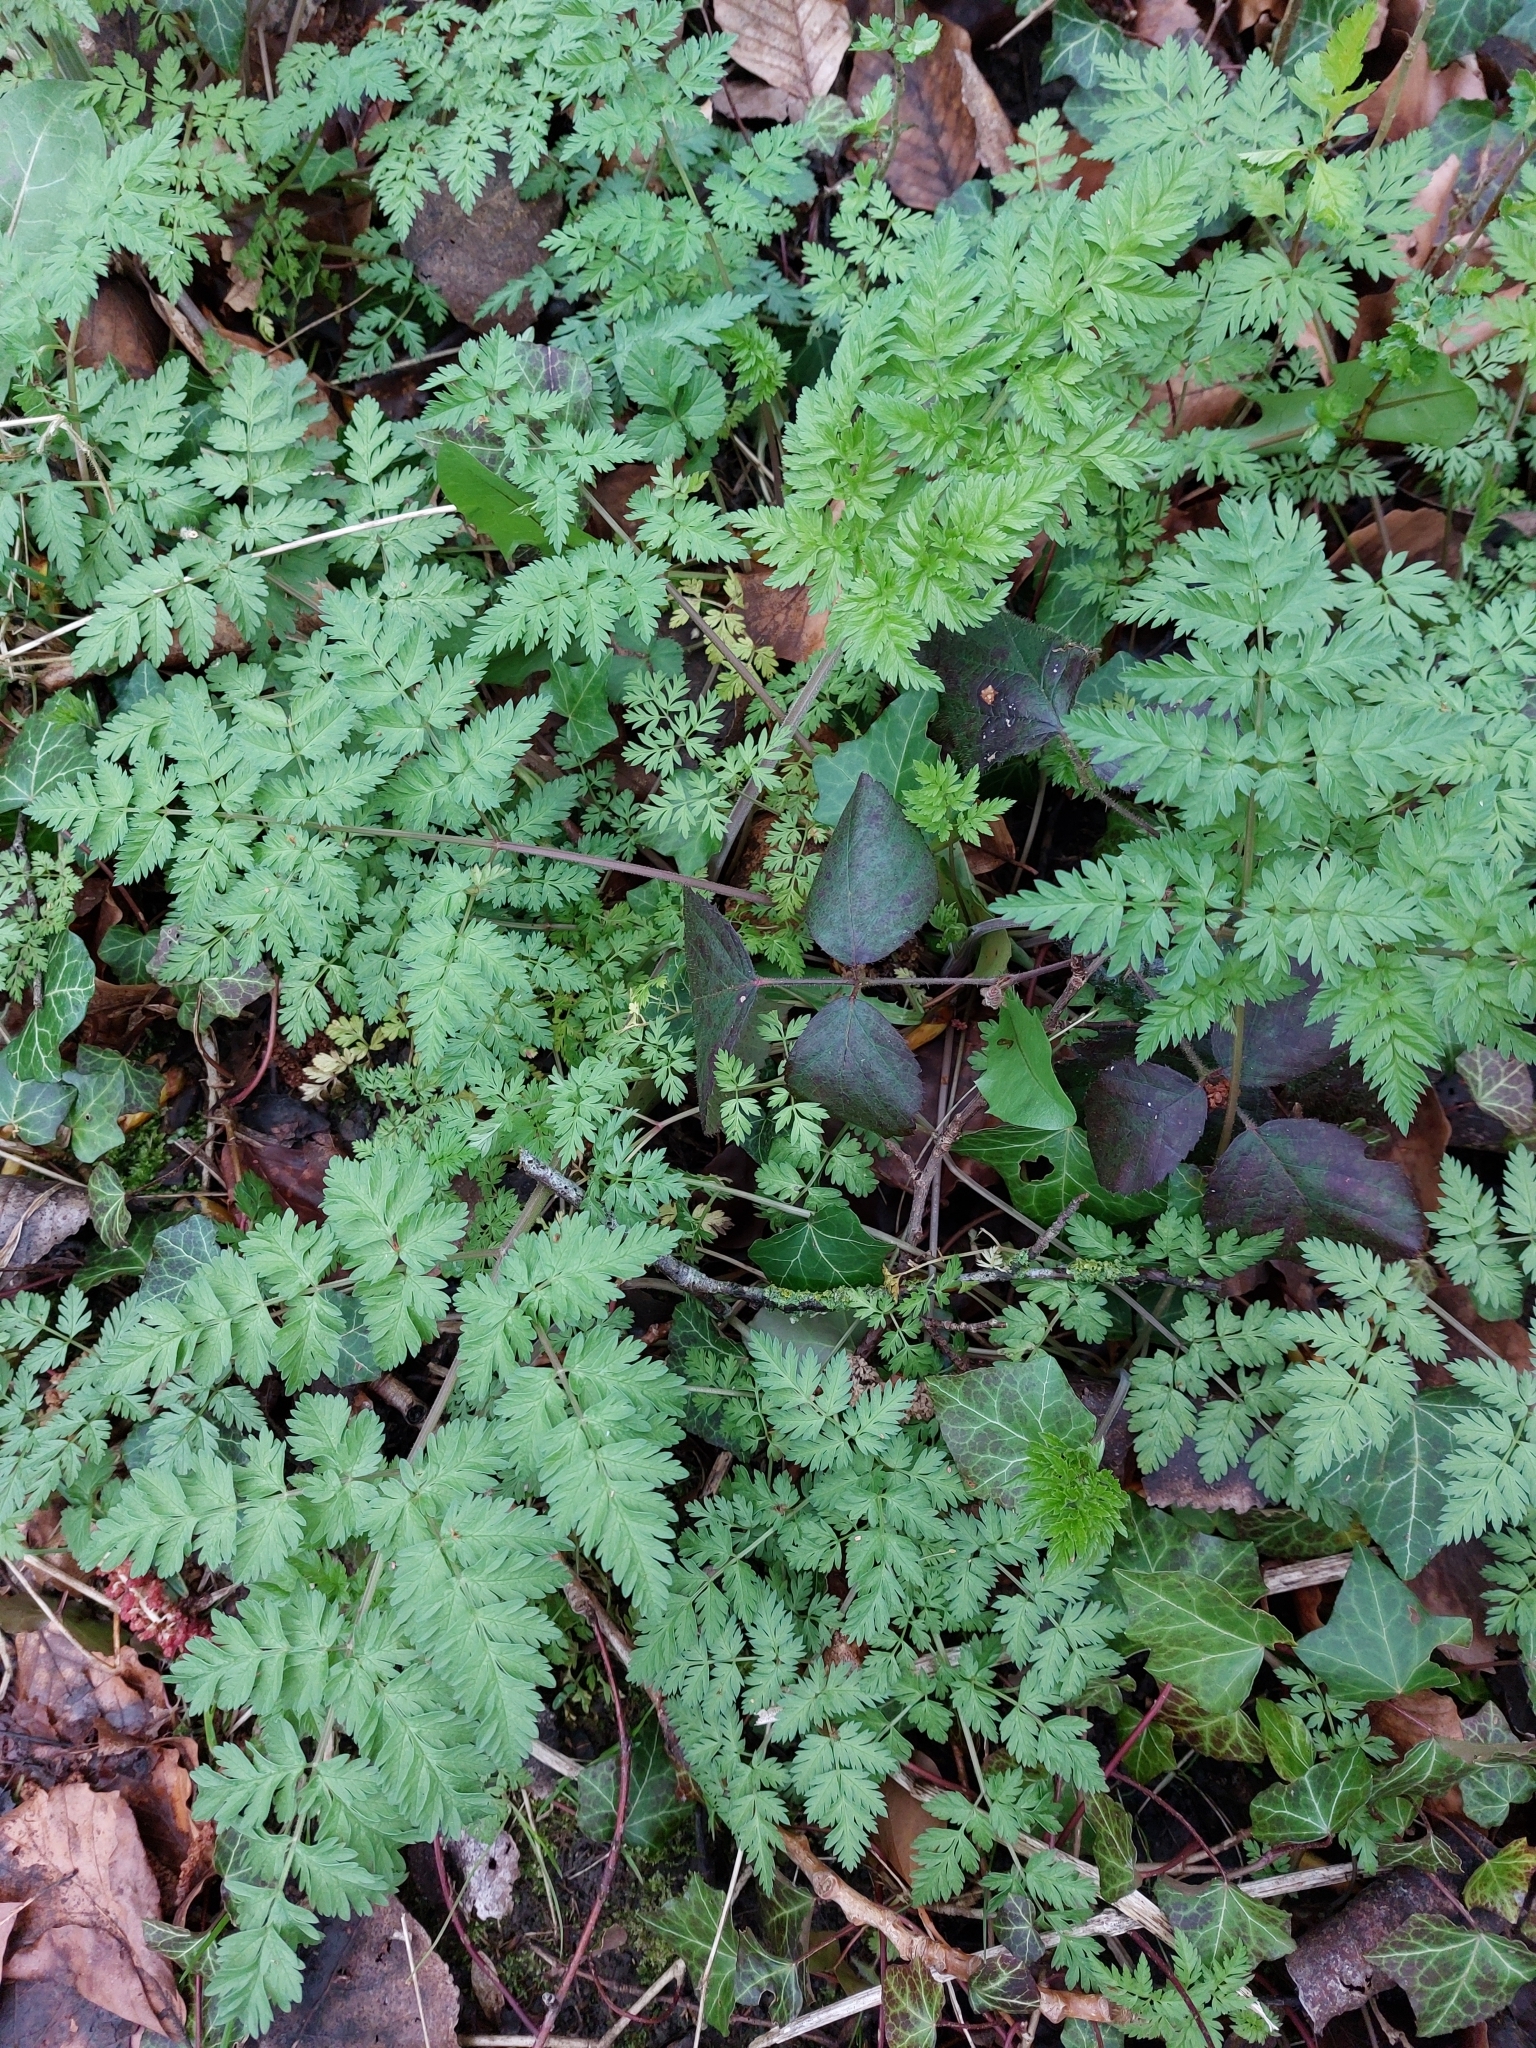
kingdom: Plantae
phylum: Tracheophyta
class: Magnoliopsida
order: Apiales
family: Apiaceae
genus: Anthriscus
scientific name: Anthriscus sylvestris
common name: Cow parsley
